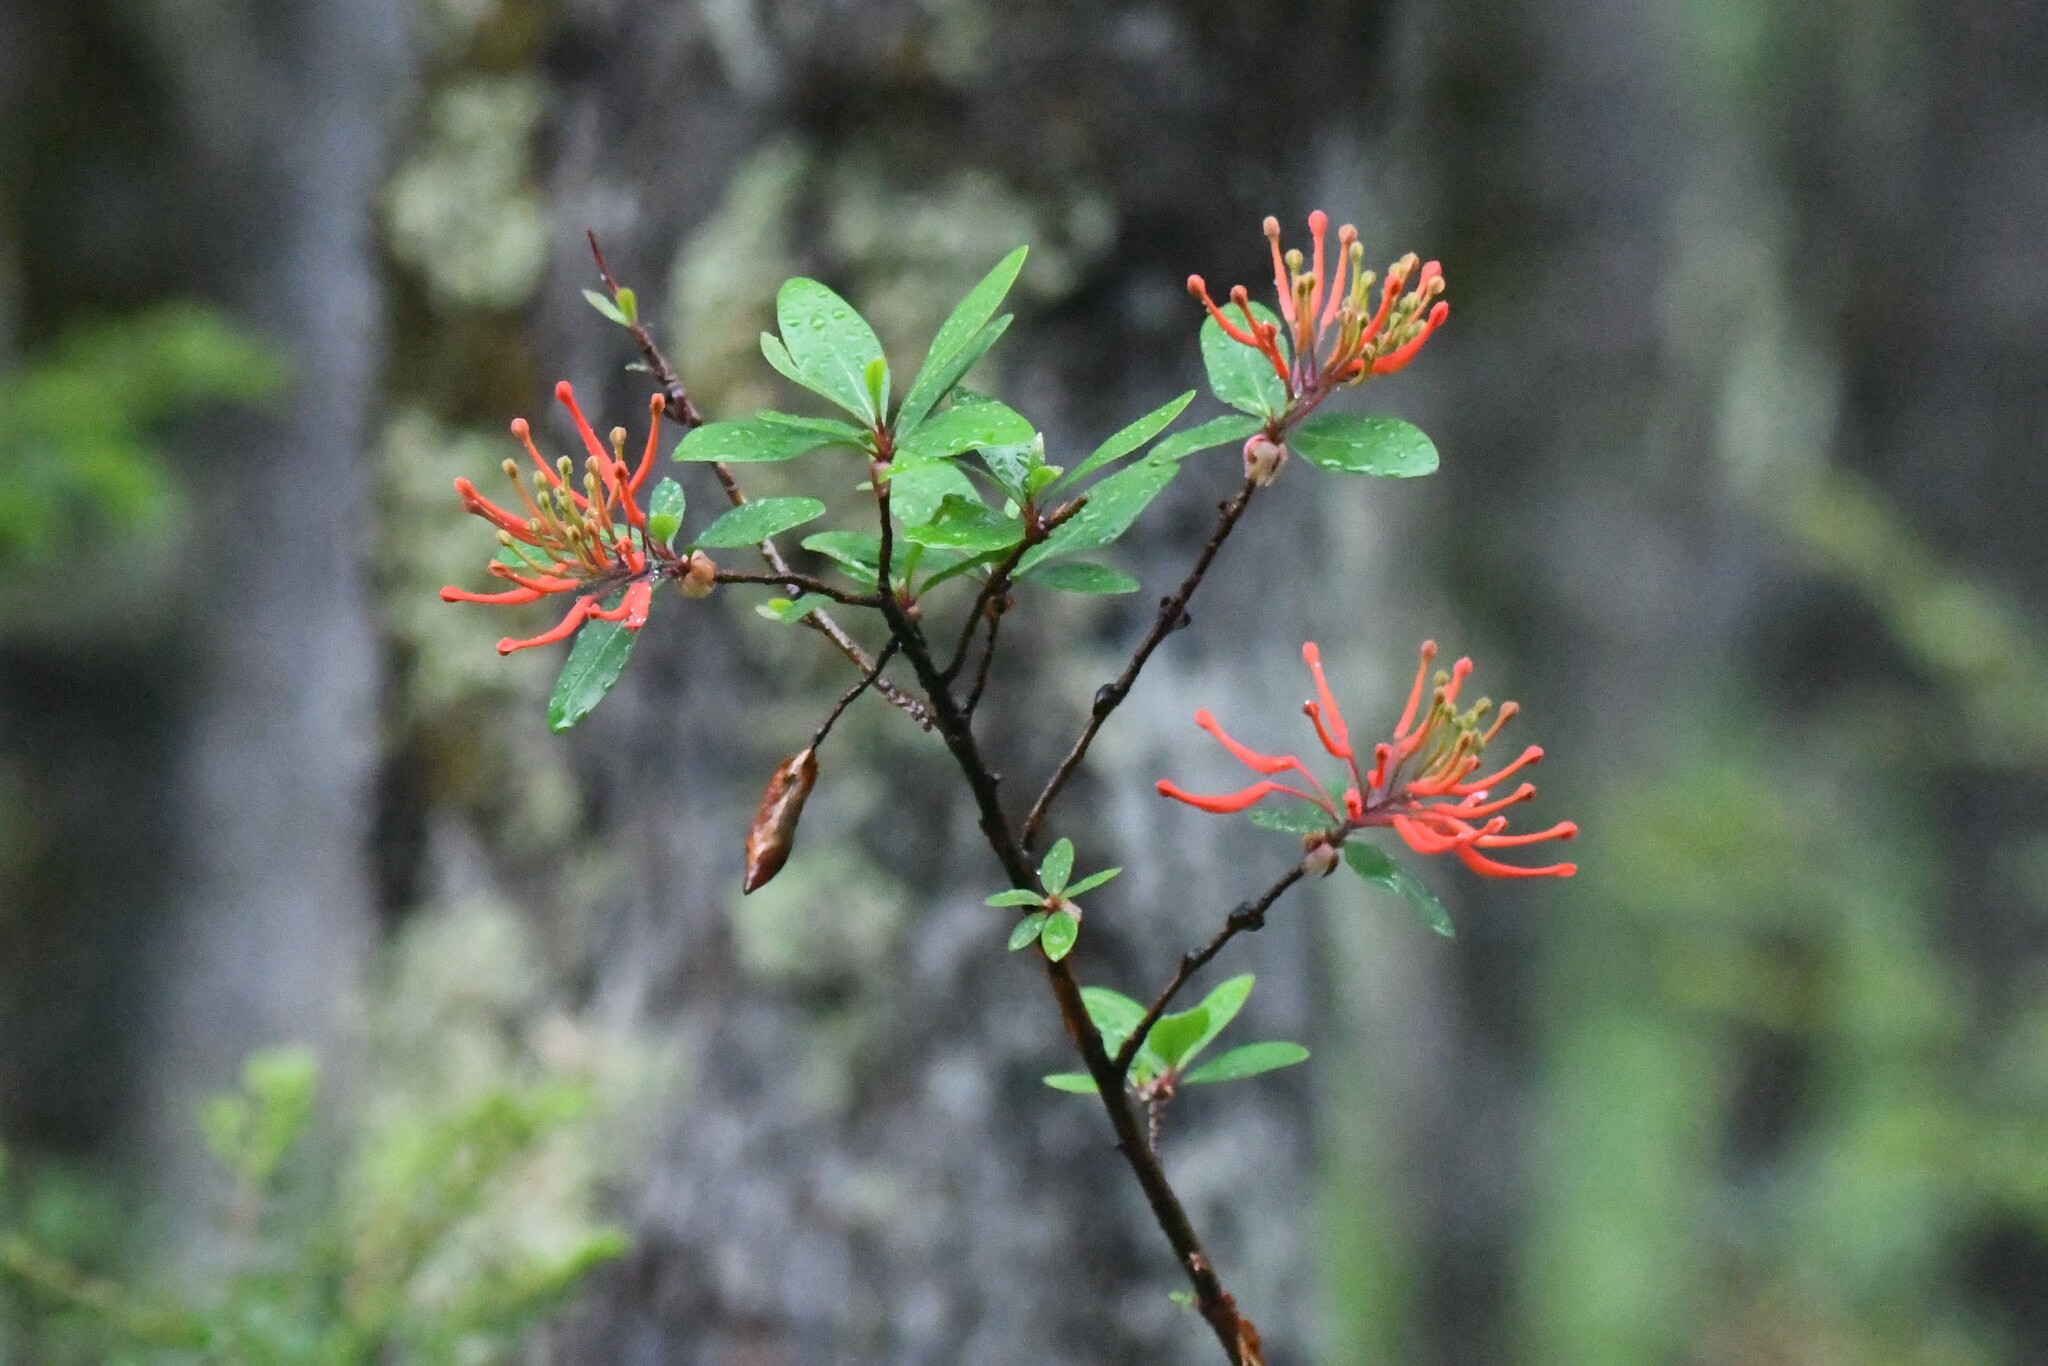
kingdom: Plantae
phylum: Tracheophyta
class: Magnoliopsida
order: Proteales
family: Proteaceae
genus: Embothrium
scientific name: Embothrium coccineum
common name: Chilean firebush
